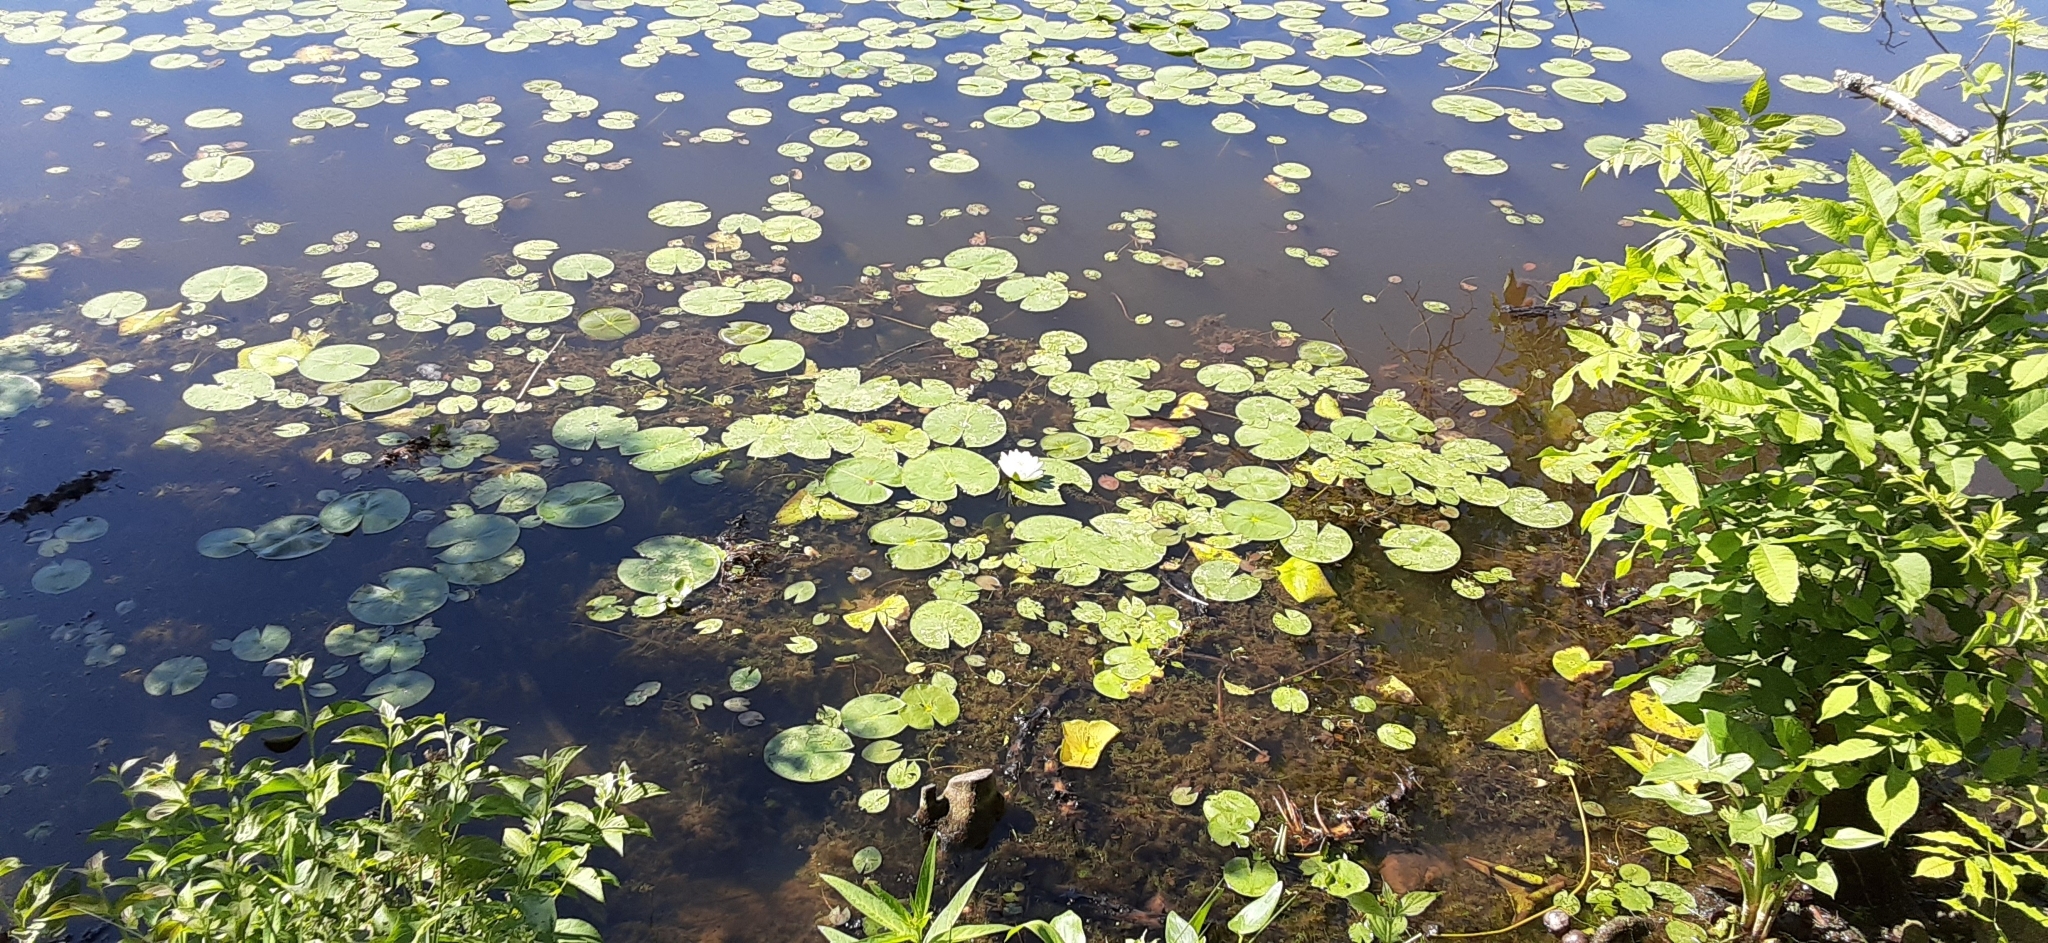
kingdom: Plantae
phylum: Tracheophyta
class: Magnoliopsida
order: Nymphaeales
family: Nymphaeaceae
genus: Nymphaea
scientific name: Nymphaea odorata
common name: Fragrant water-lily
